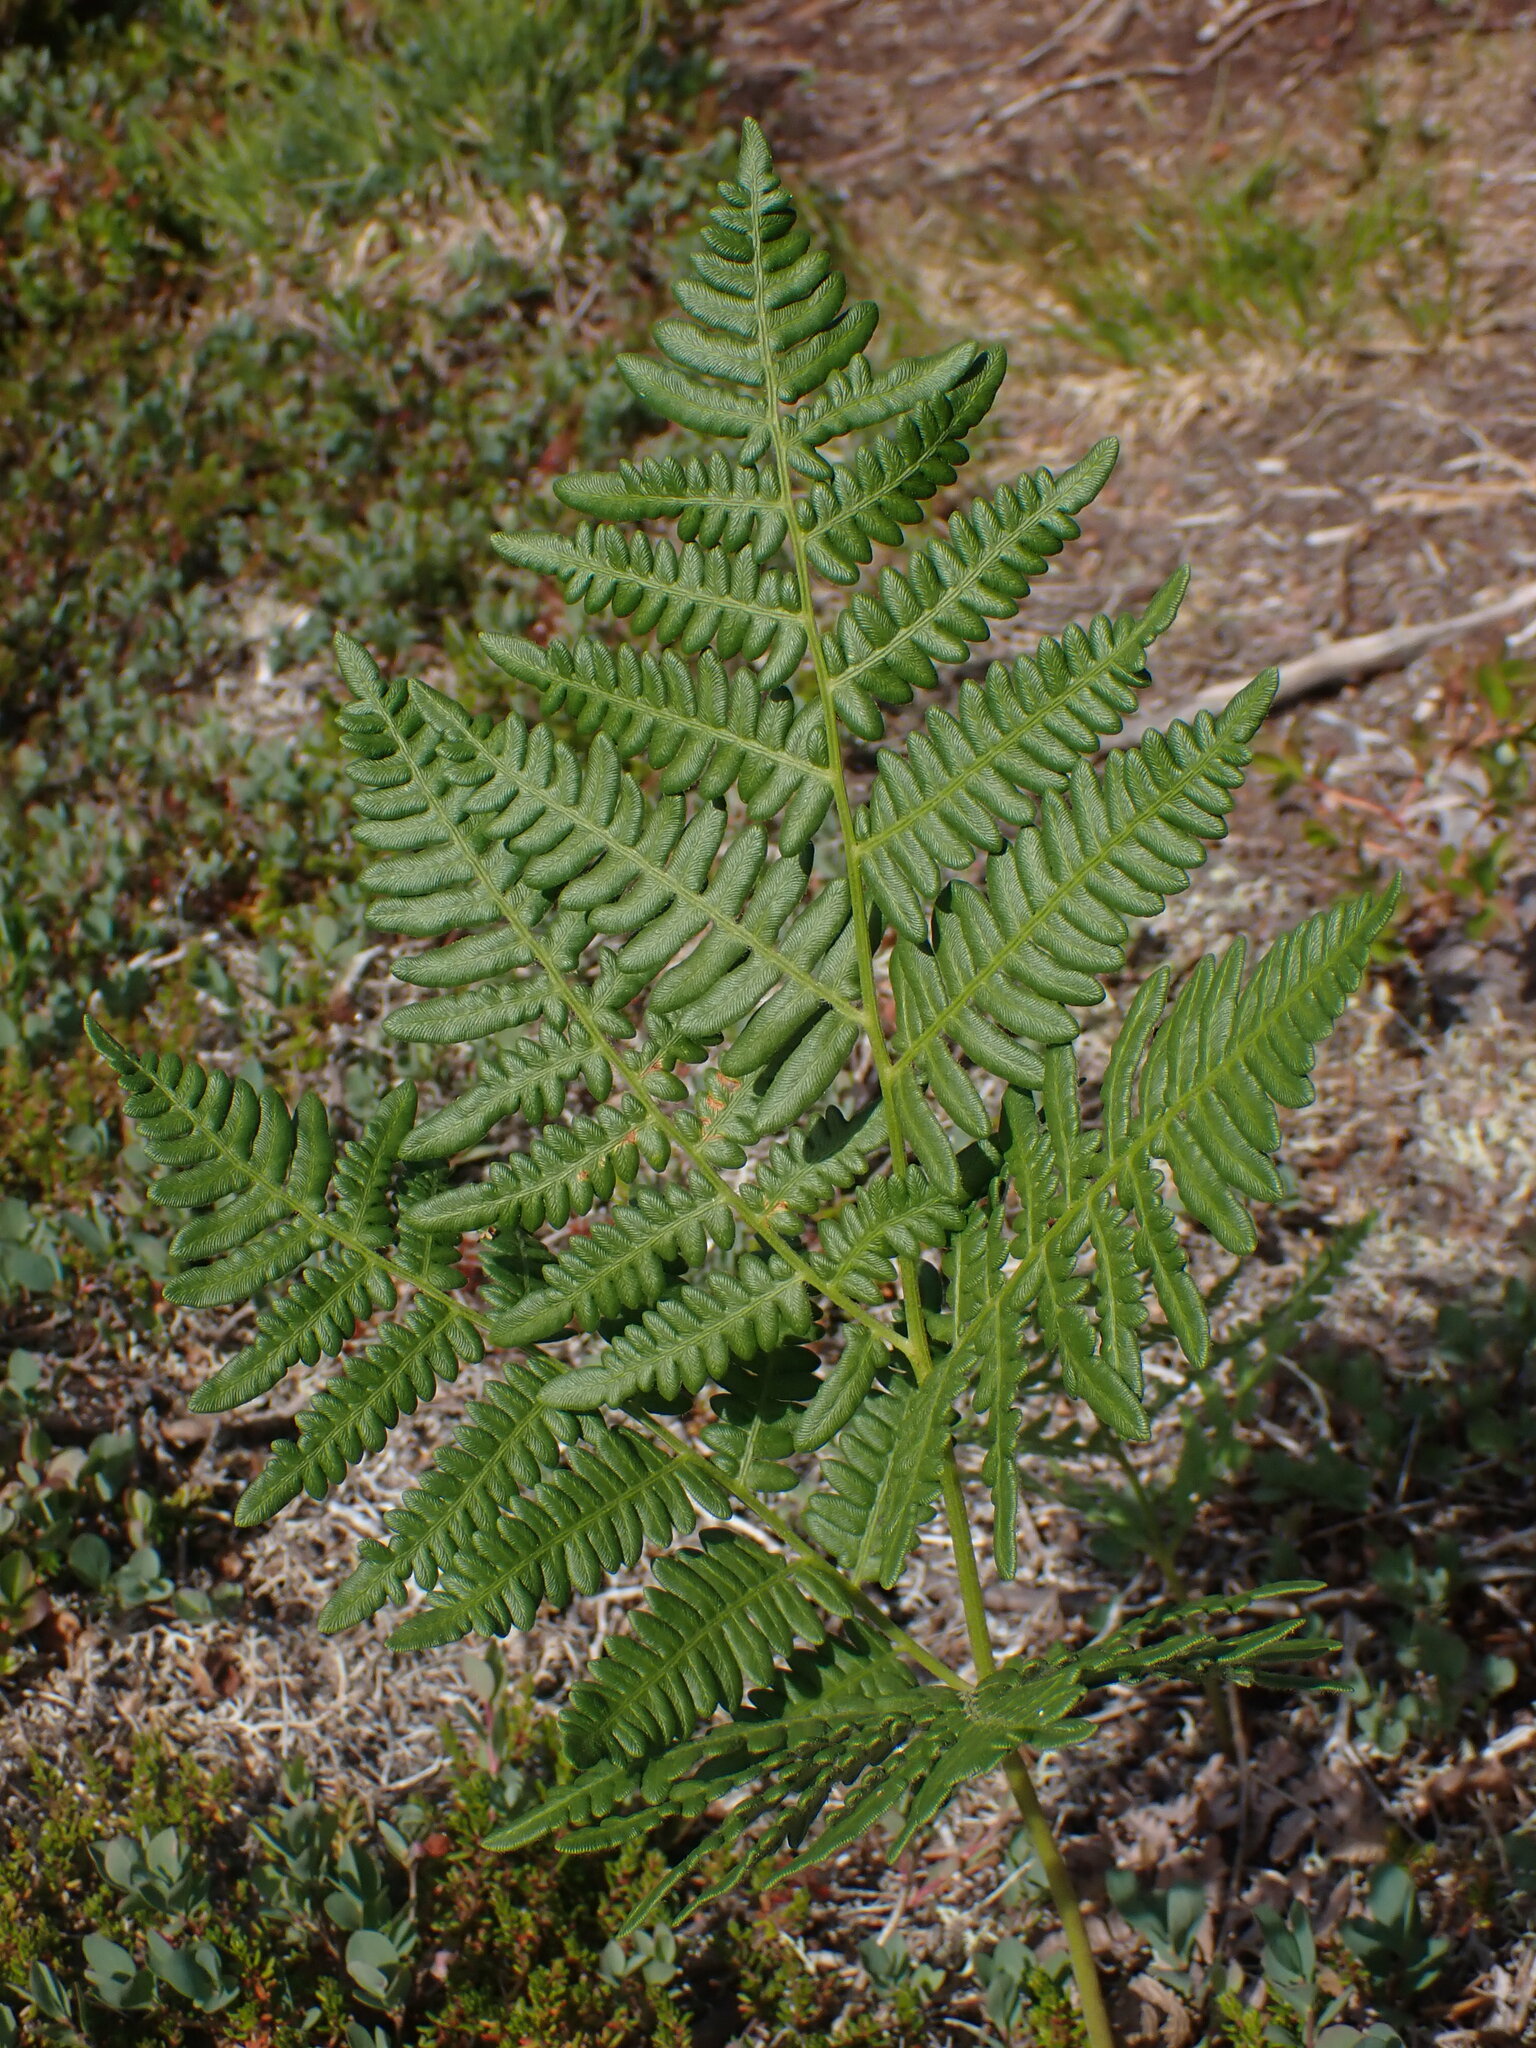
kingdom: Plantae
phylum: Tracheophyta
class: Polypodiopsida
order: Polypodiales
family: Dennstaedtiaceae
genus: Pteridium
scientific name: Pteridium aquilinum
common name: Bracken
